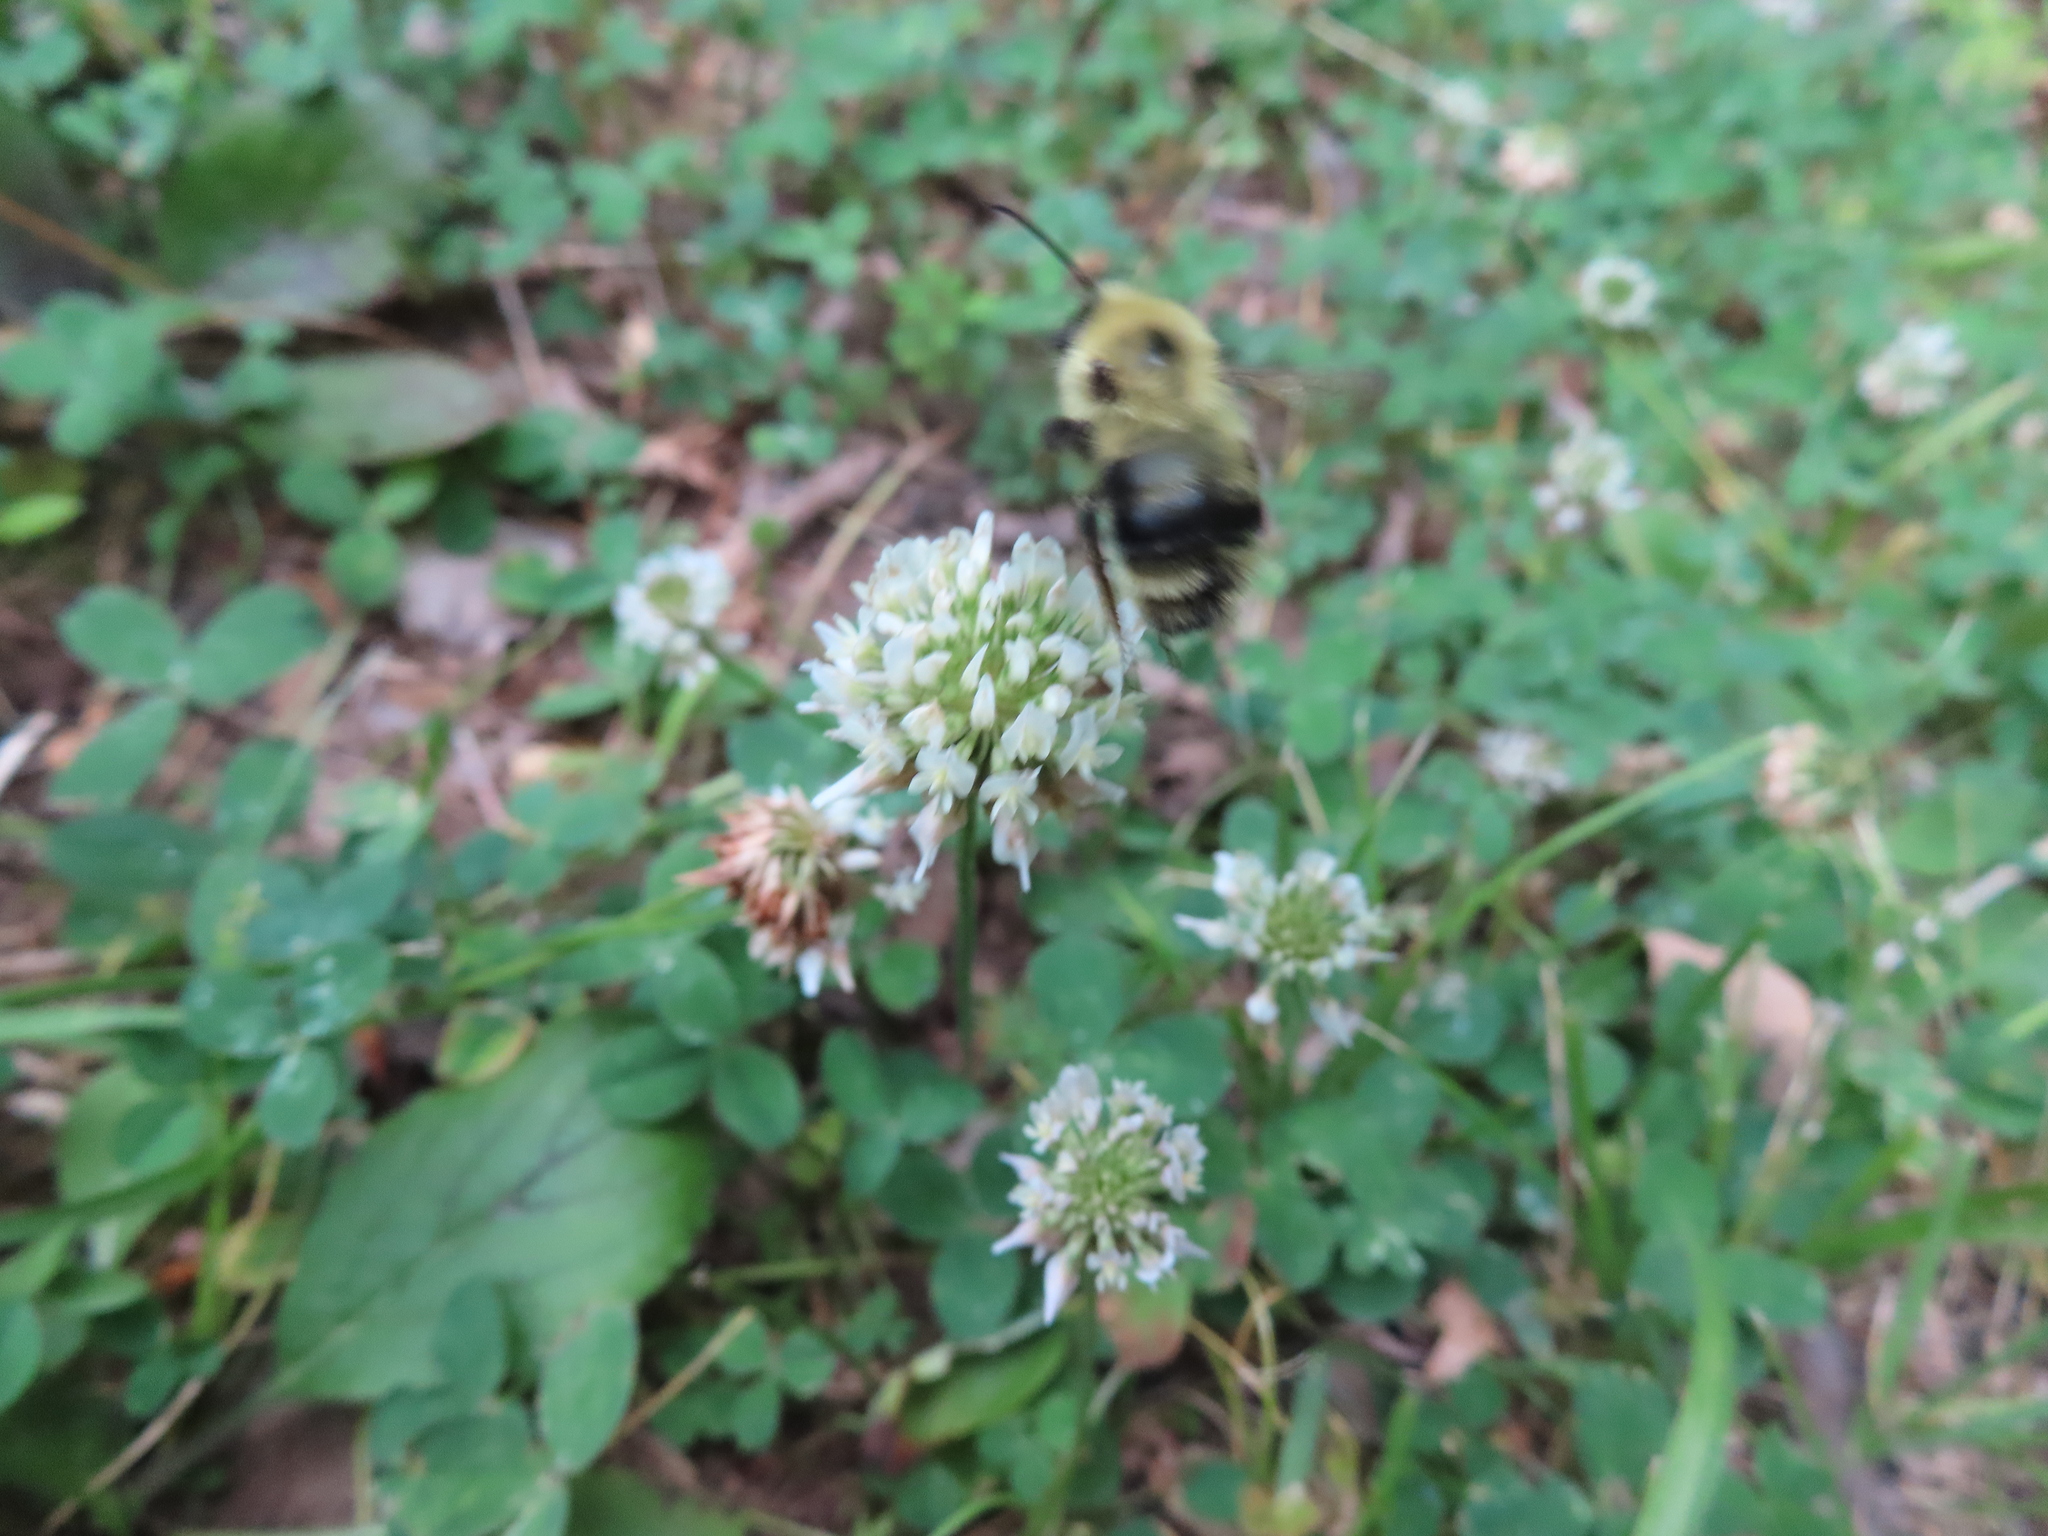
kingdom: Animalia
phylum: Arthropoda
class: Insecta
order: Hymenoptera
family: Apidae
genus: Bombus
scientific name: Bombus bimaculatus
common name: Two-spotted bumble bee
